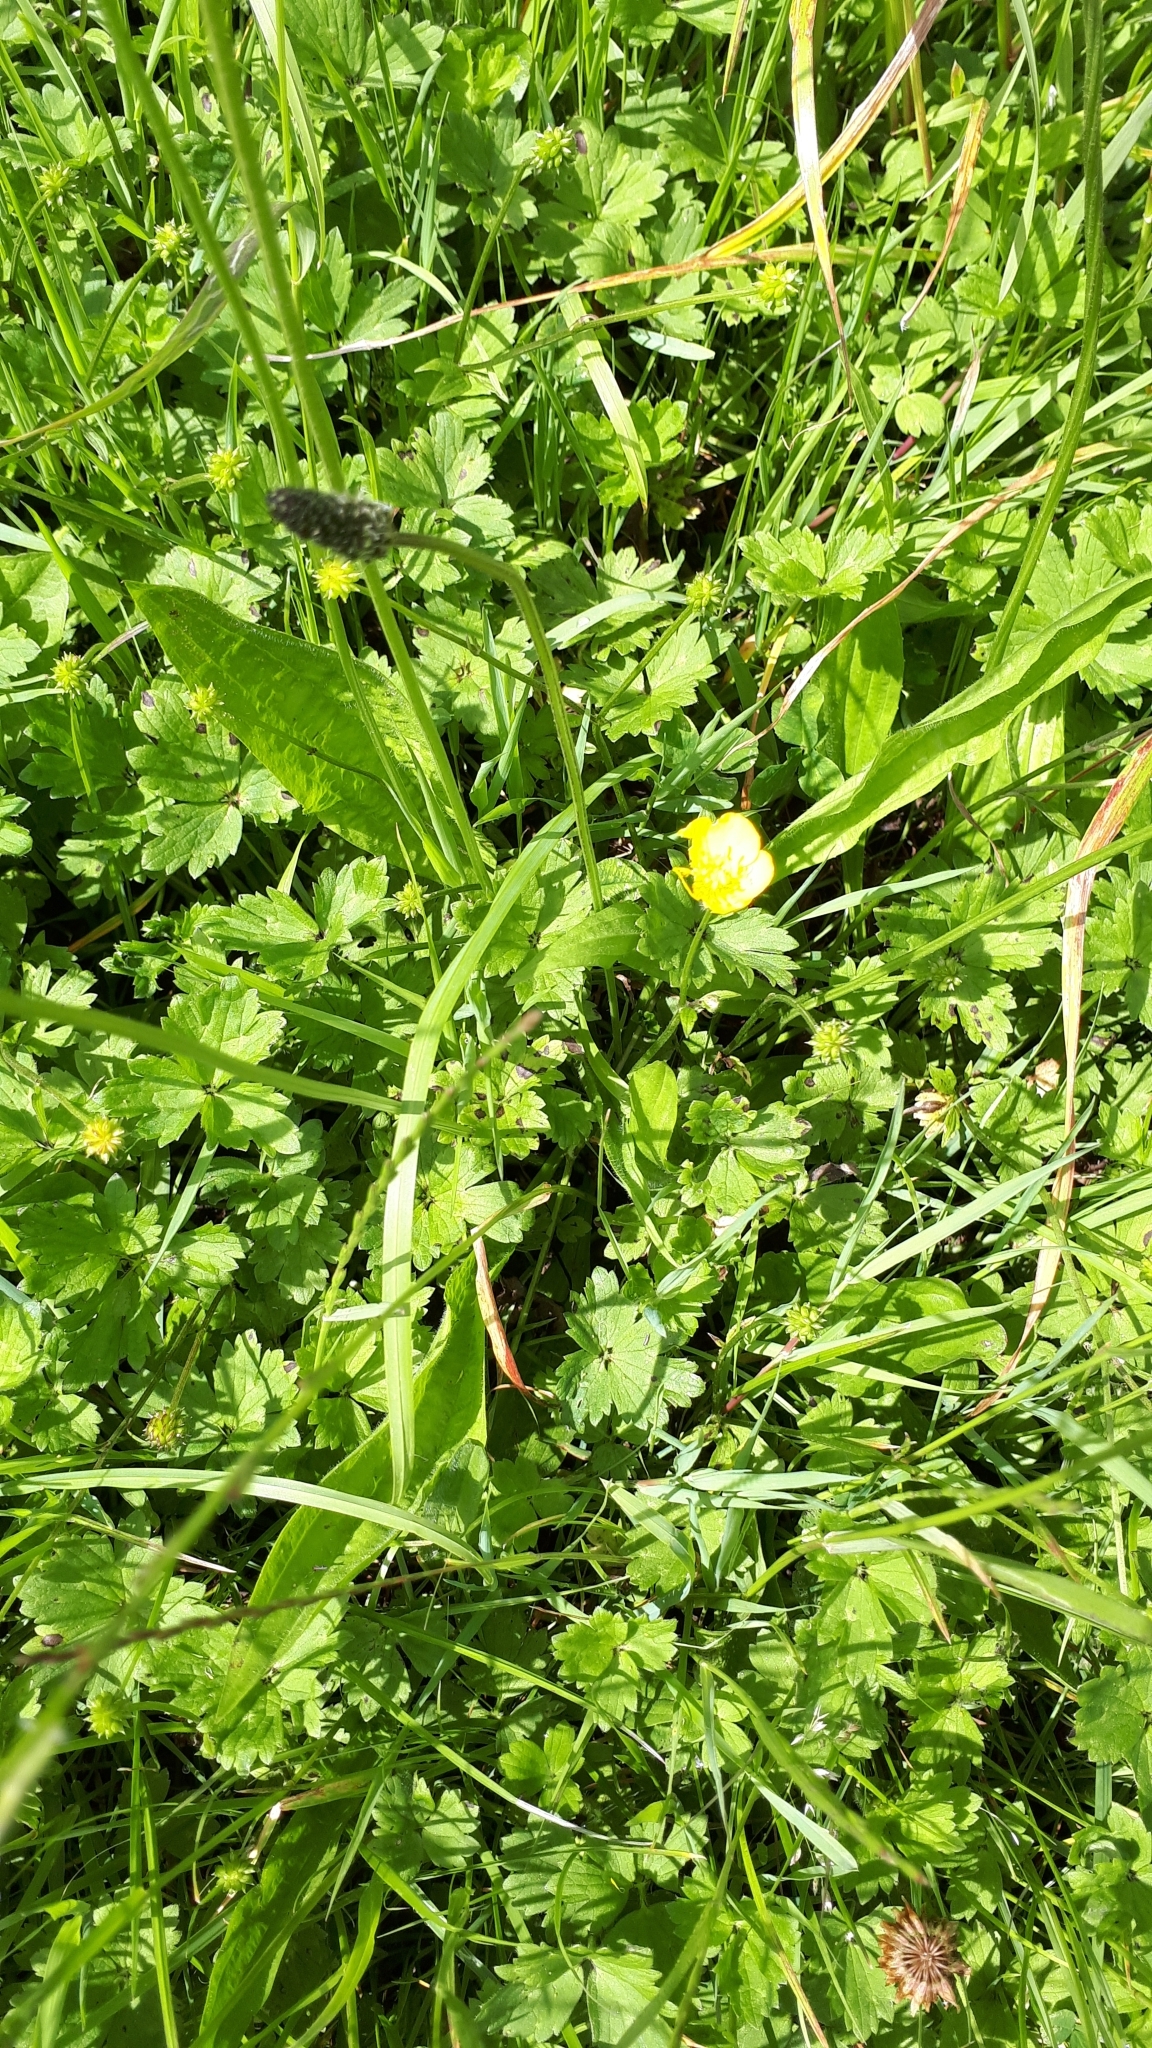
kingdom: Plantae
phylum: Tracheophyta
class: Magnoliopsida
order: Lamiales
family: Plantaginaceae
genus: Plantago
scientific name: Plantago lanceolata
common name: Ribwort plantain
